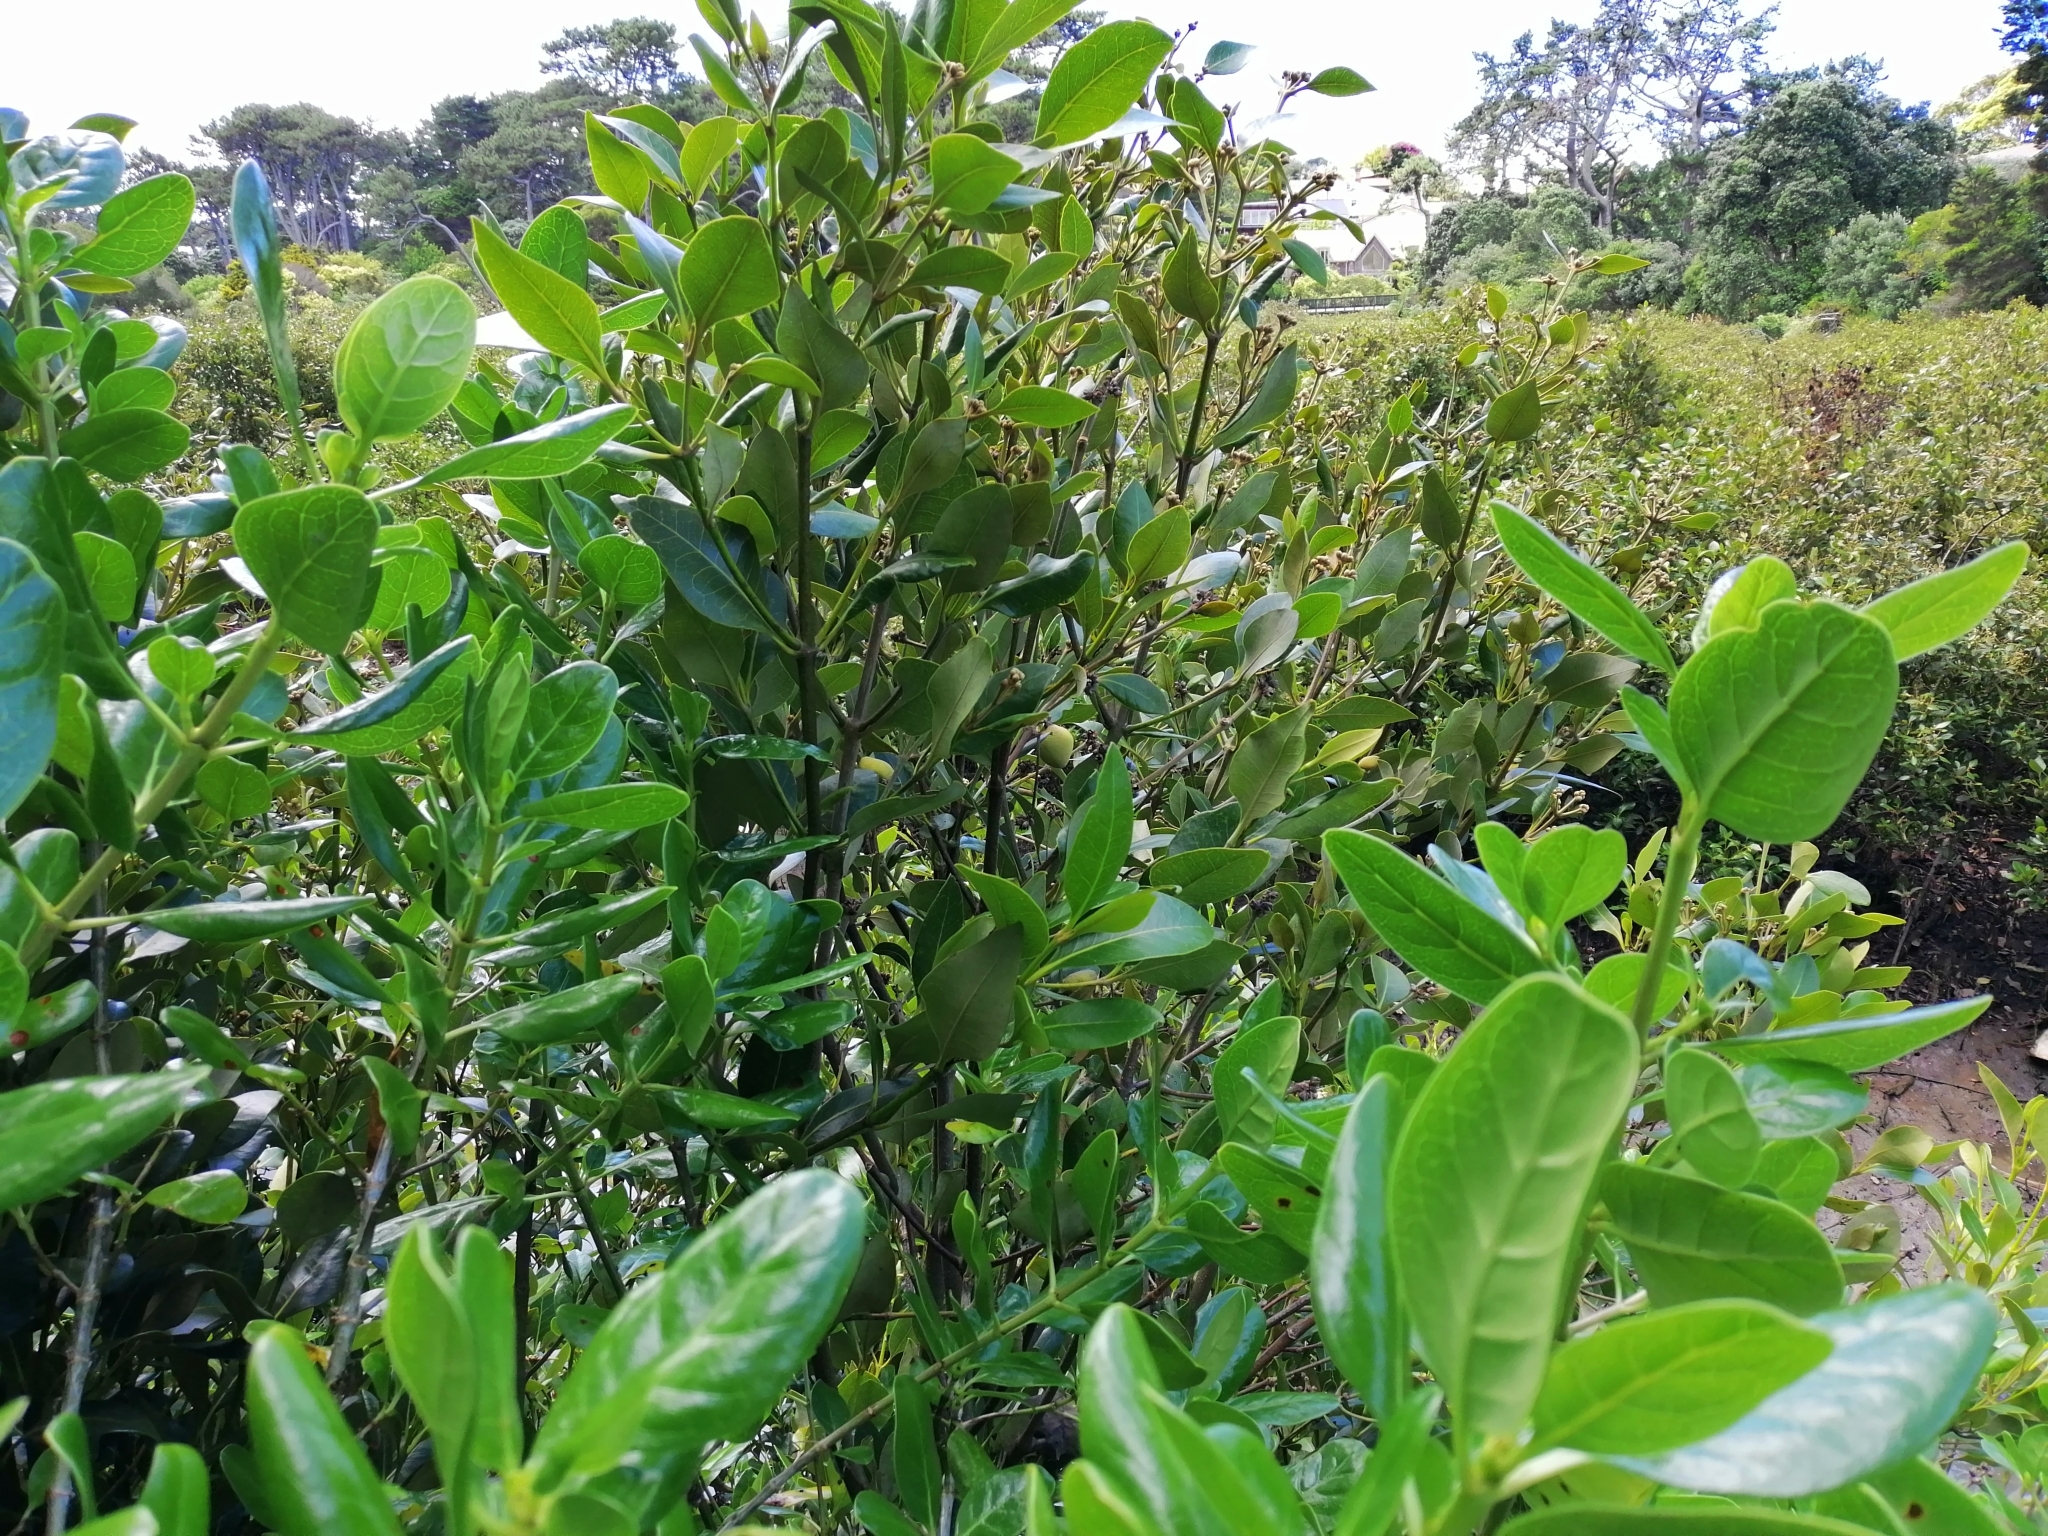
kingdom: Plantae
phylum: Tracheophyta
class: Magnoliopsida
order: Lamiales
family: Acanthaceae
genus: Avicennia
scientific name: Avicennia marina
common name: Gray mangrove
